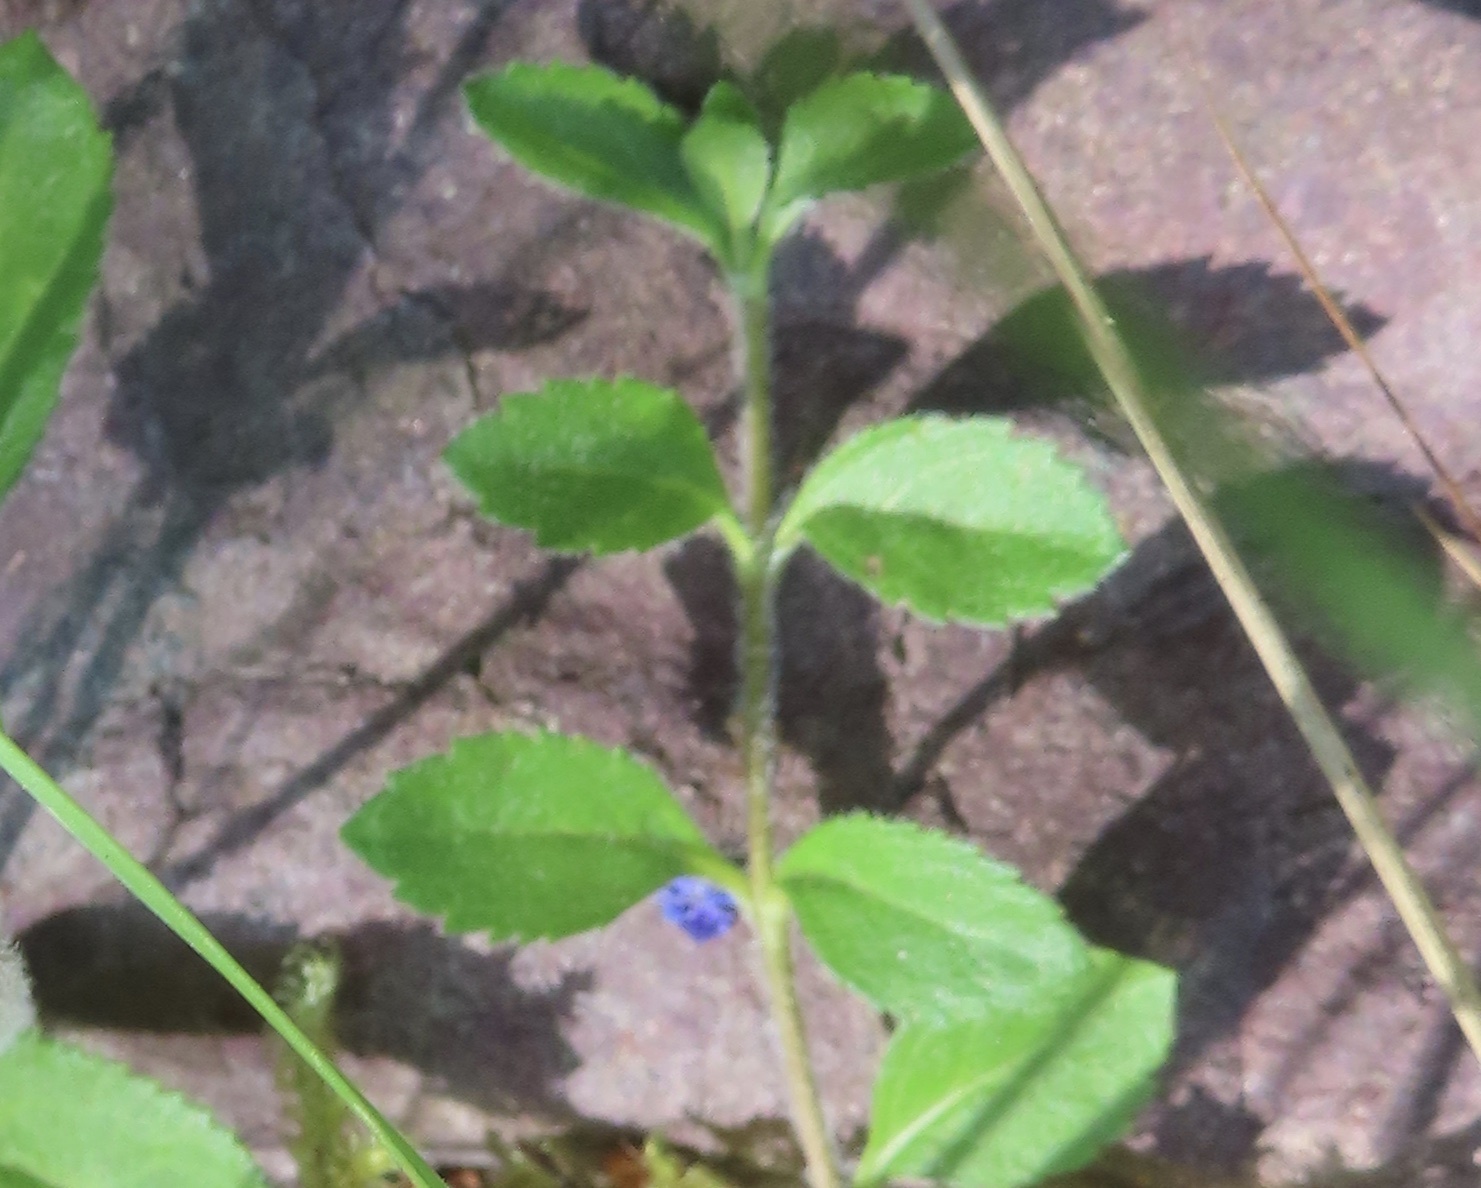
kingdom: Plantae
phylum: Tracheophyta
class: Magnoliopsida
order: Lamiales
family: Plantaginaceae
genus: Veronica
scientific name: Veronica officinalis
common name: Common speedwell
